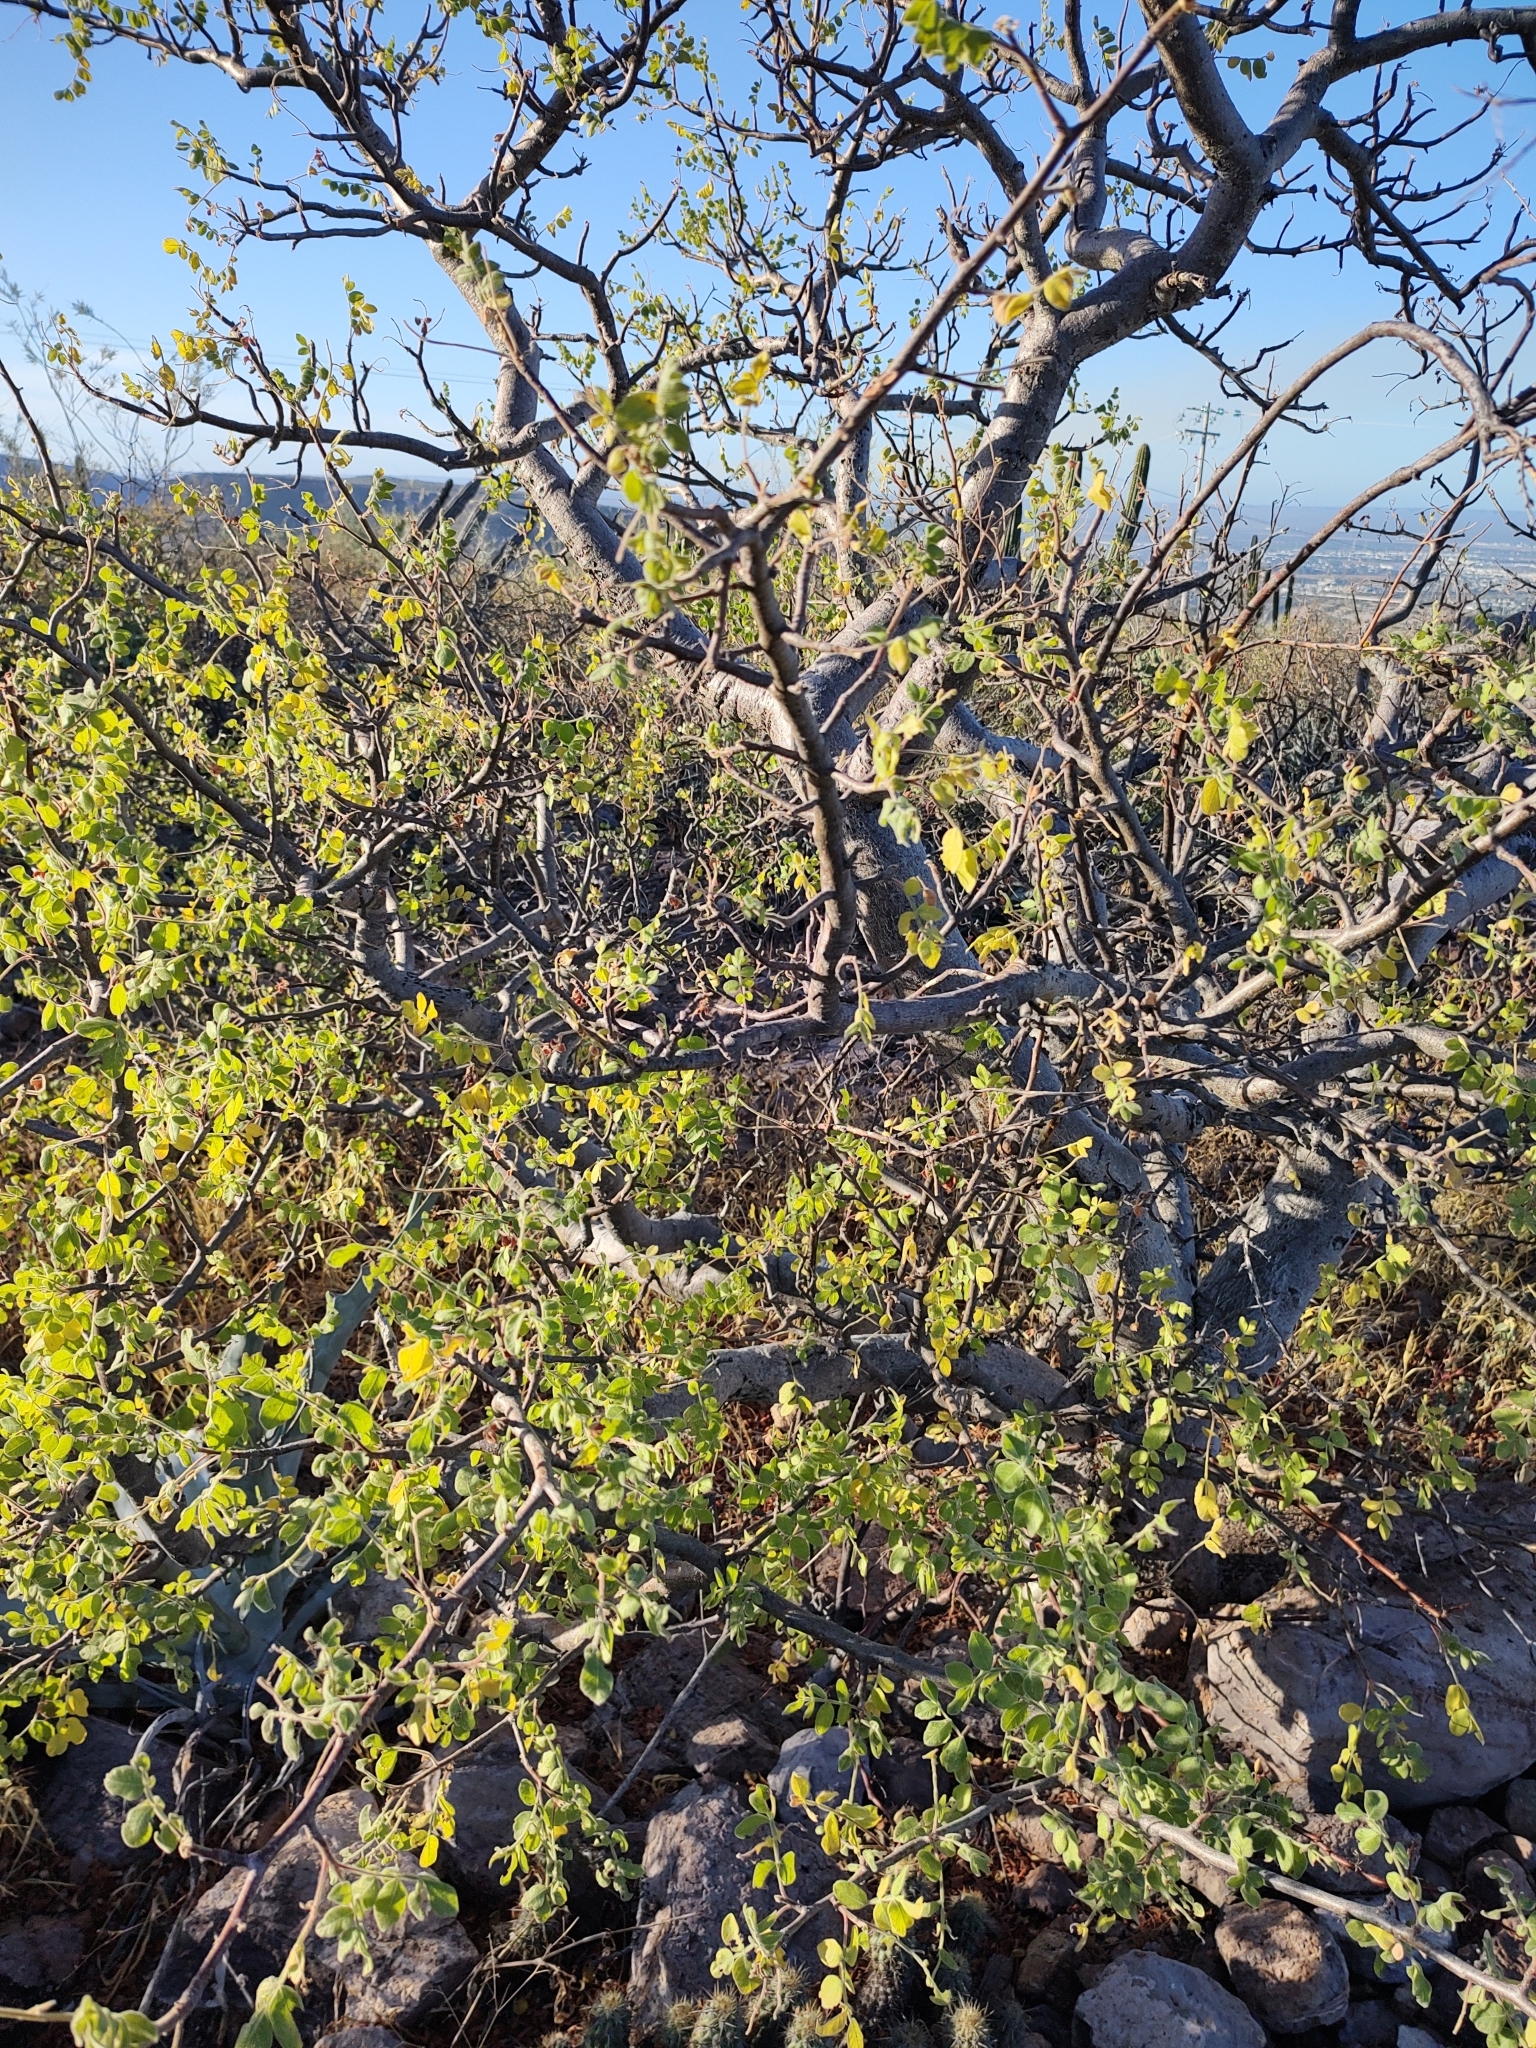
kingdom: Plantae
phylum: Tracheophyta
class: Magnoliopsida
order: Sapindales
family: Anacardiaceae
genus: Cyrtocarpa
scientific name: Cyrtocarpa edulis
